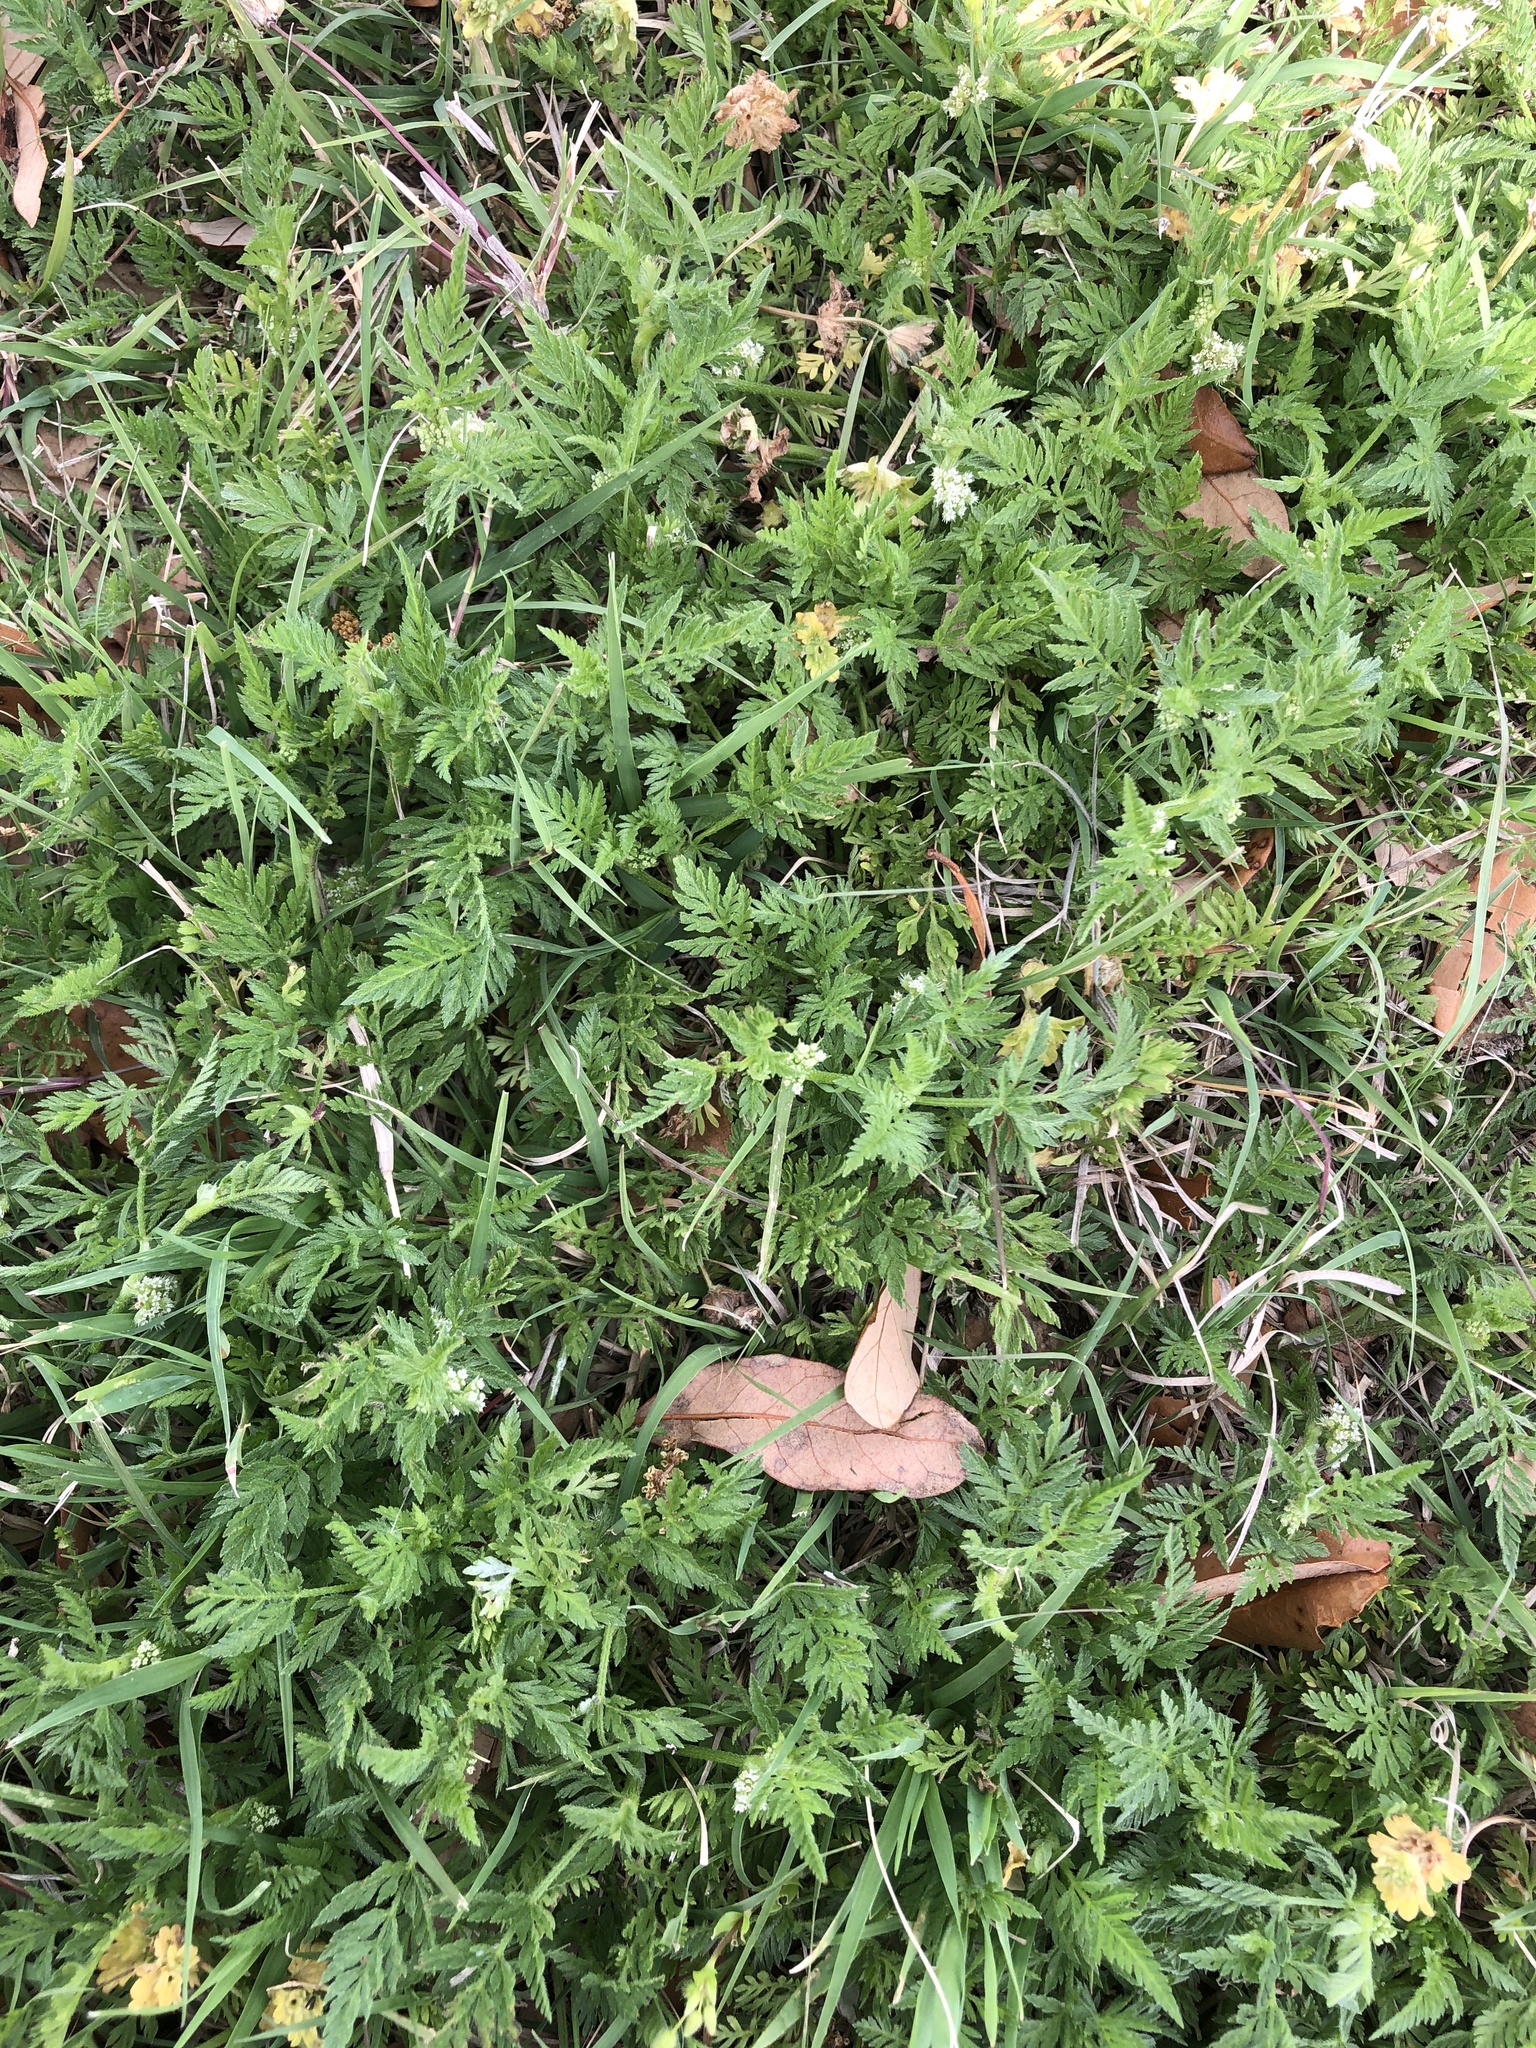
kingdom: Plantae
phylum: Tracheophyta
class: Magnoliopsida
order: Apiales
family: Apiaceae
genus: Torilis
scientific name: Torilis nodosa
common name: Knotted hedge-parsley
